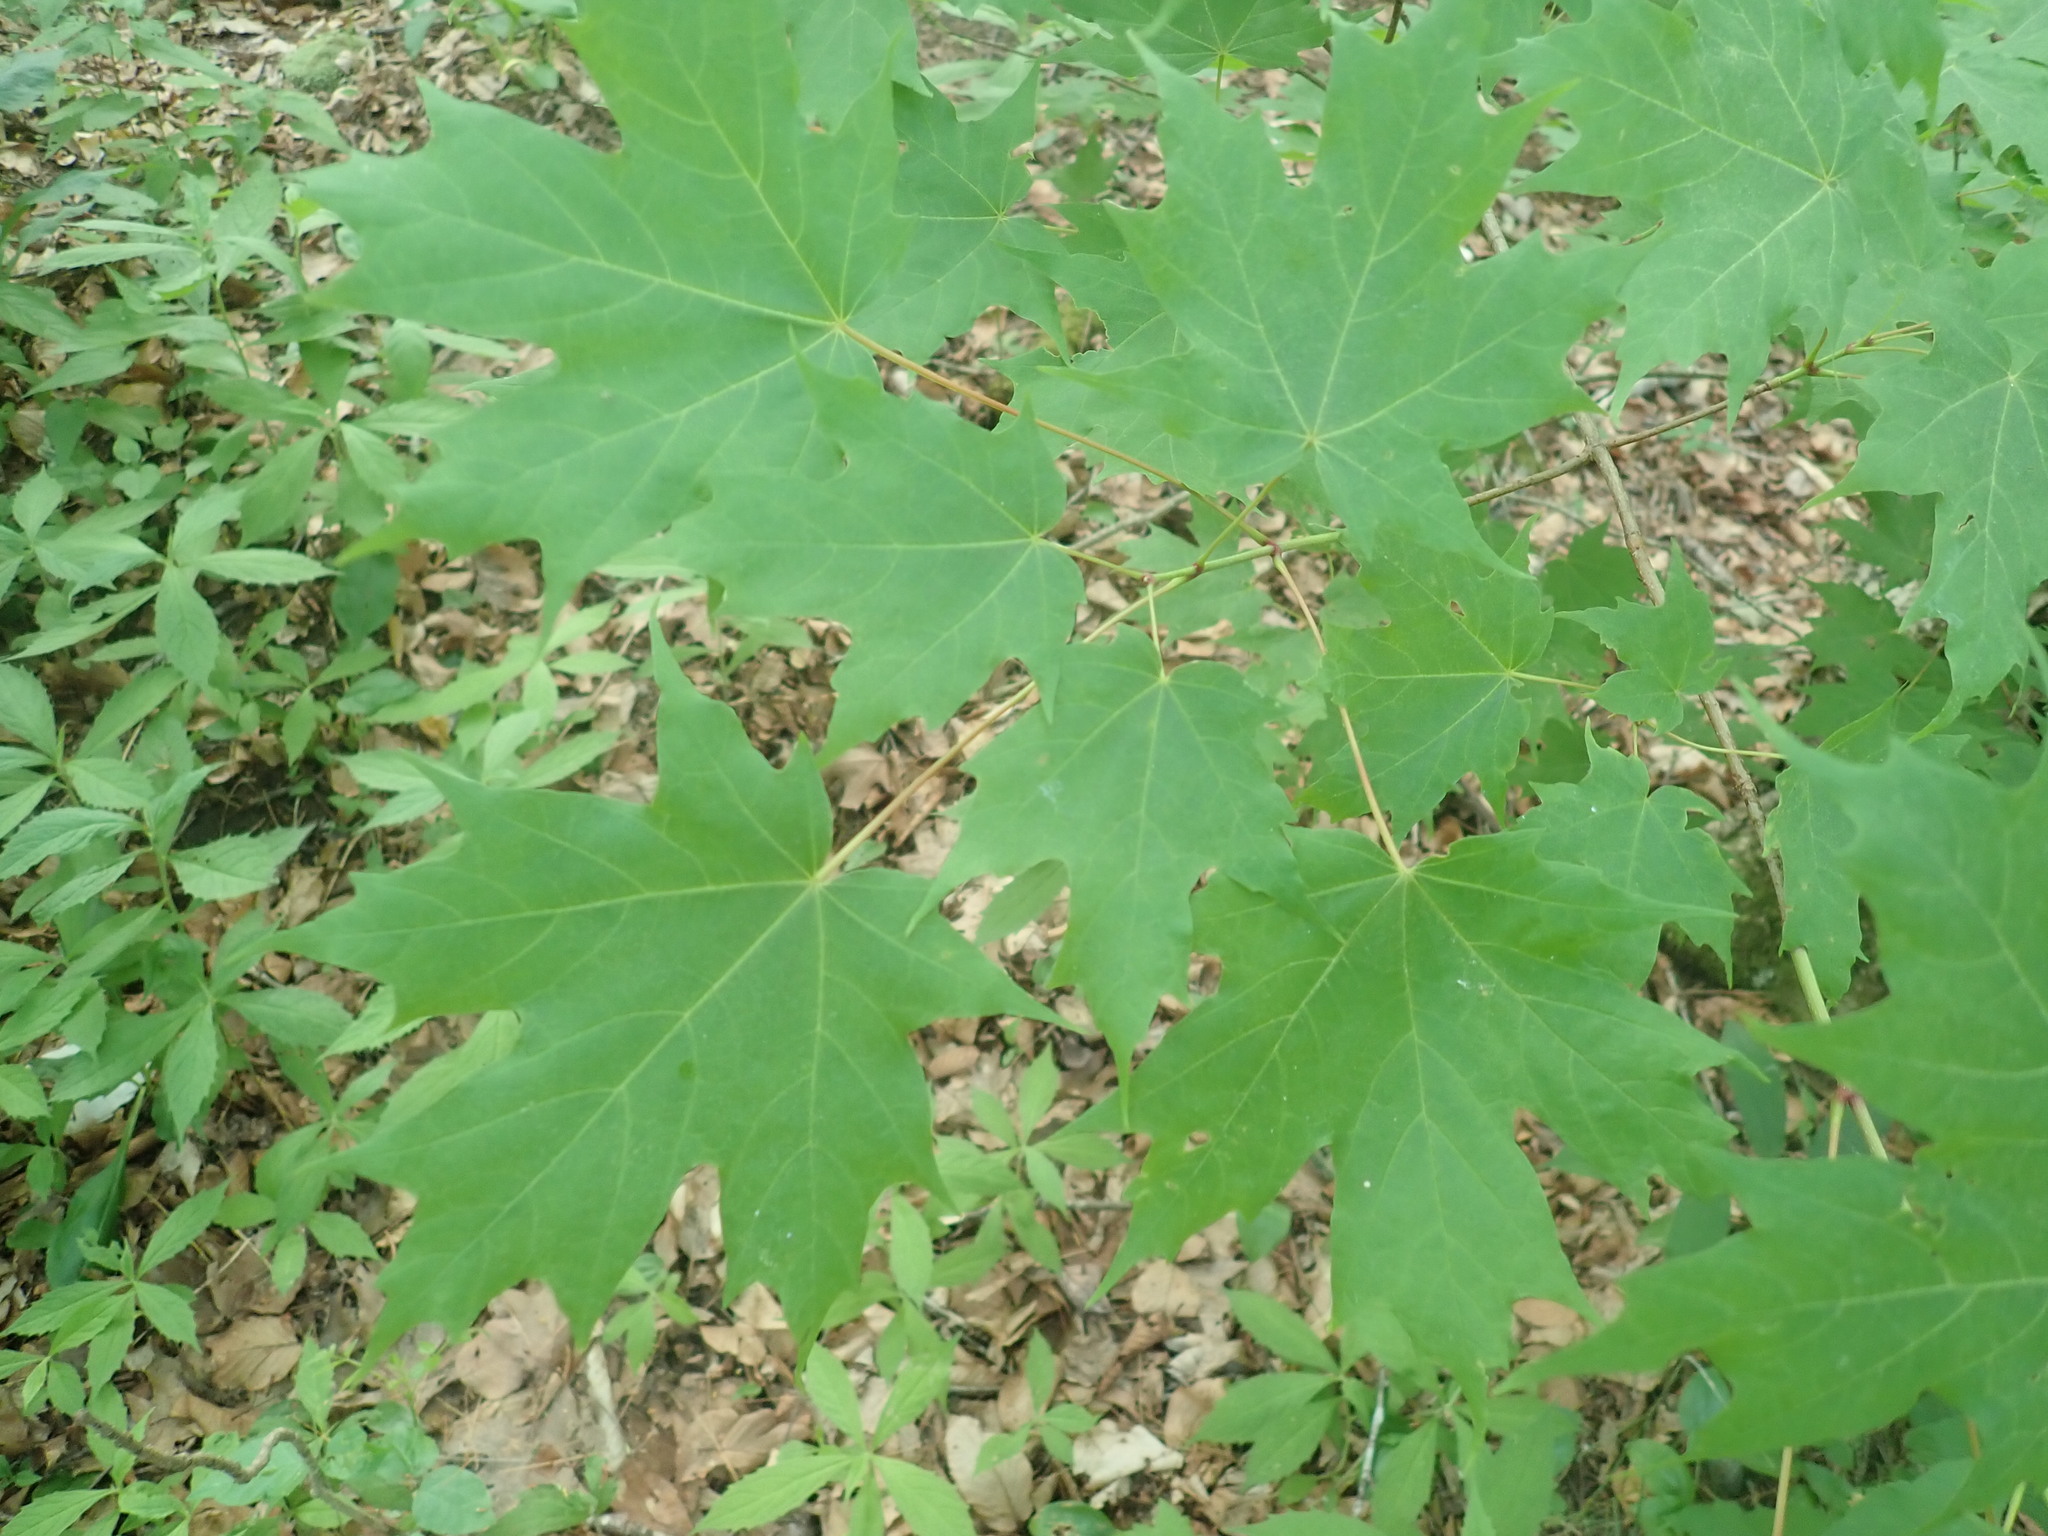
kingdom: Plantae
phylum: Tracheophyta
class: Magnoliopsida
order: Sapindales
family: Sapindaceae
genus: Acer
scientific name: Acer saccharum
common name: Sugar maple
